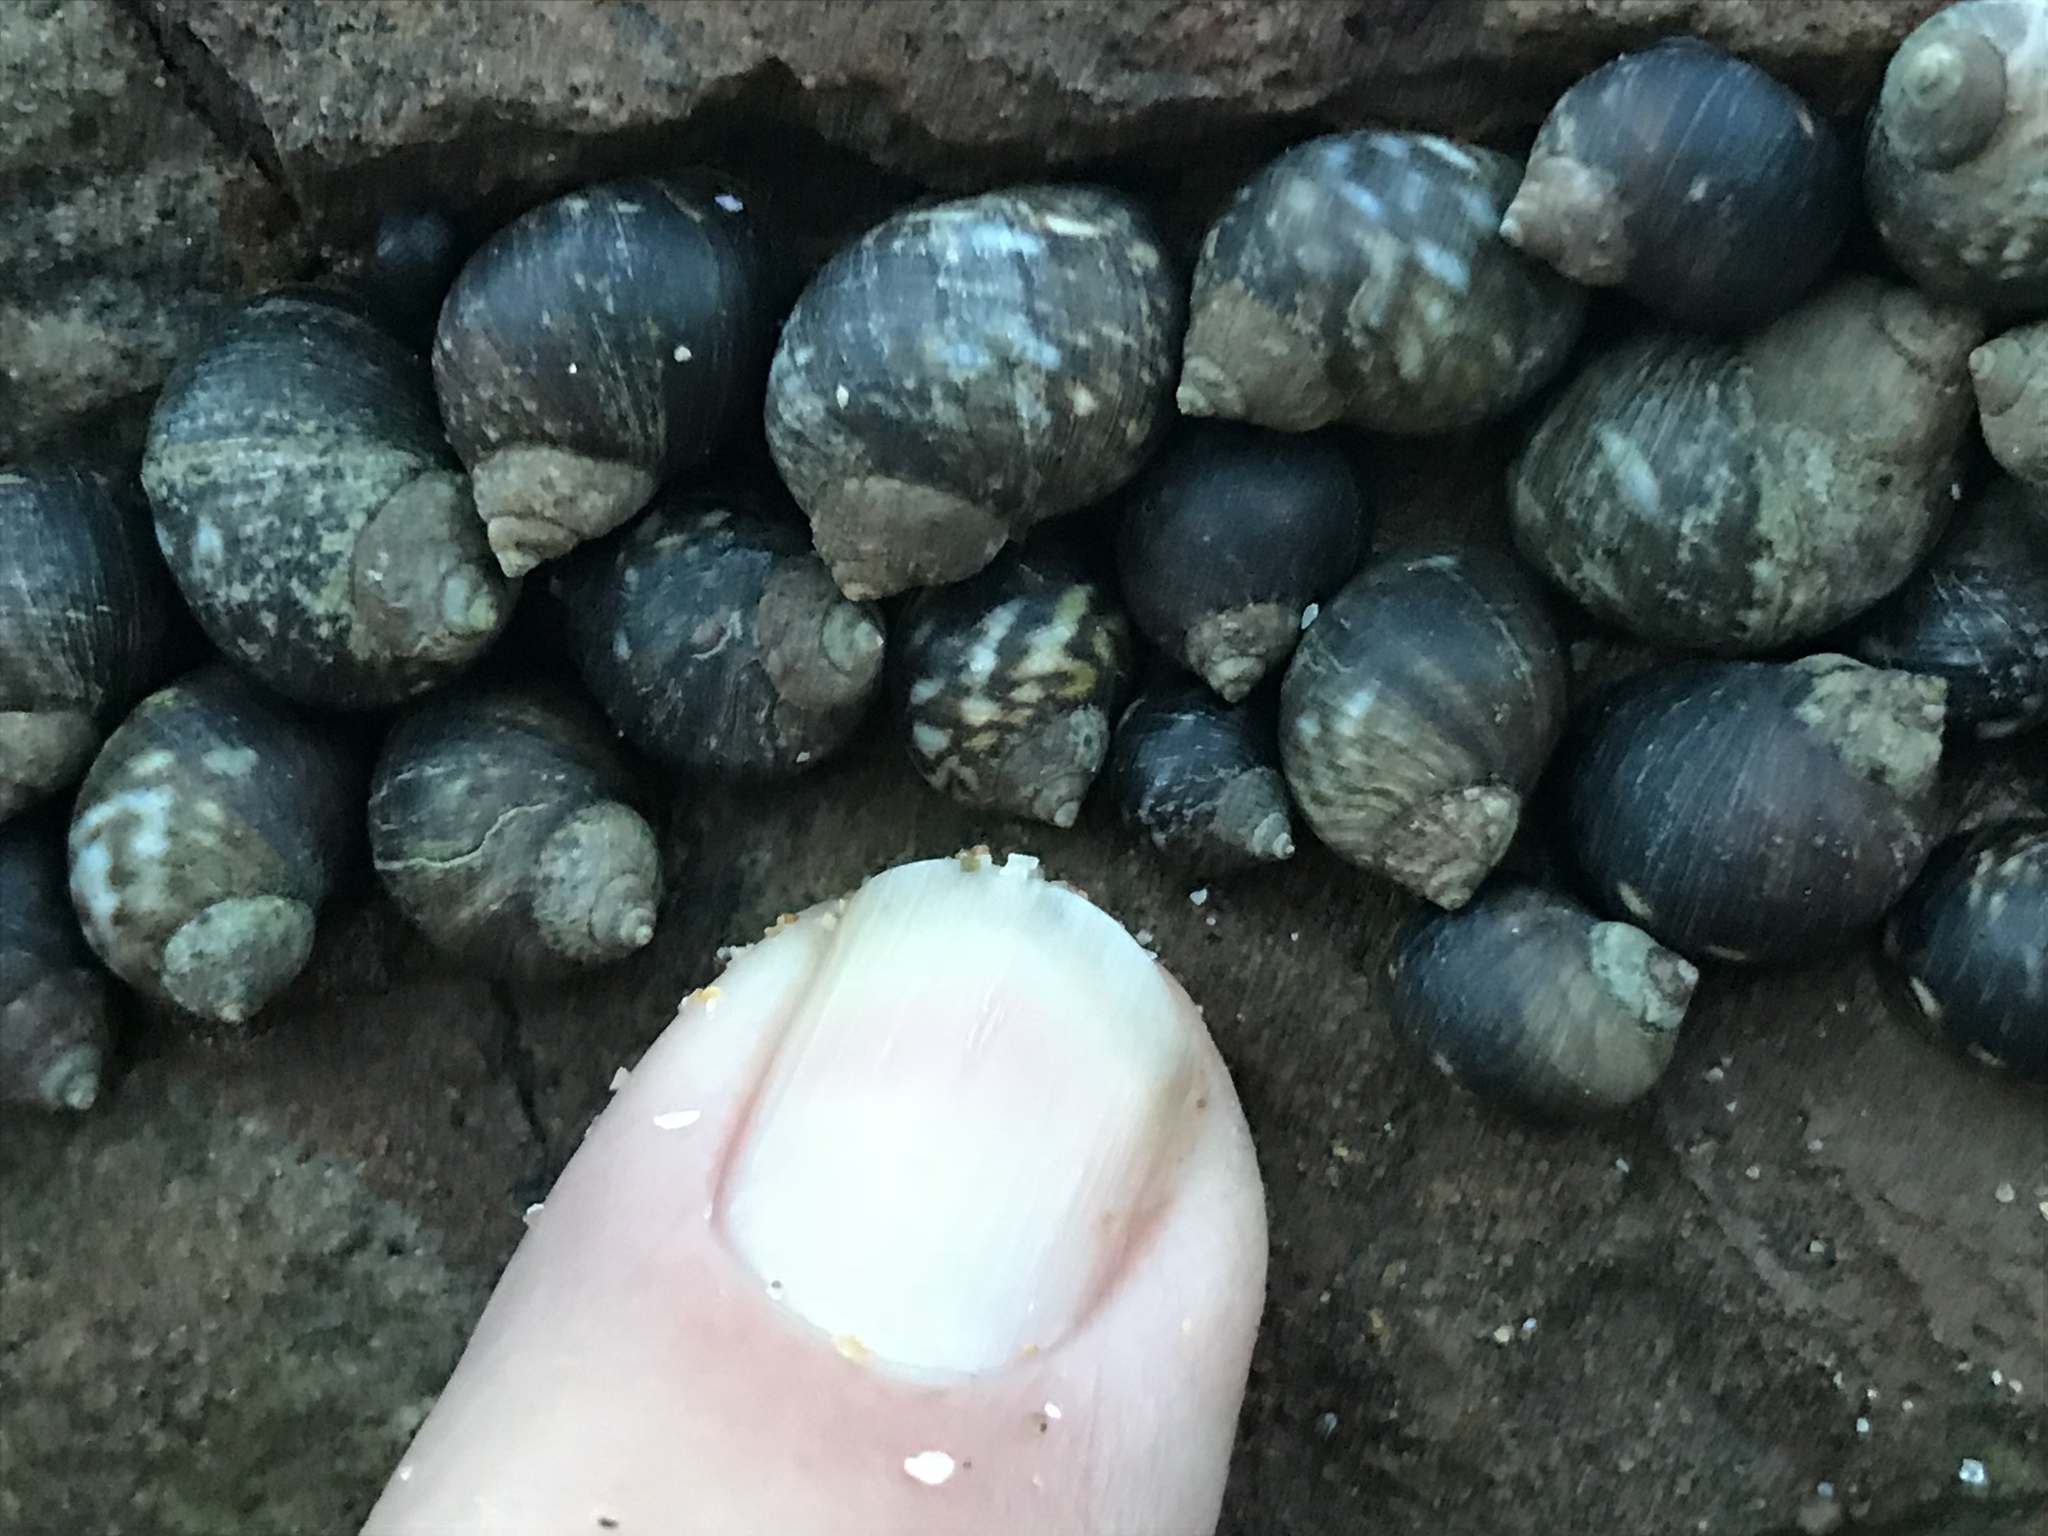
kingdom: Animalia
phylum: Mollusca
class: Gastropoda
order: Littorinimorpha
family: Littorinidae
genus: Littorina
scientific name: Littorina keenae
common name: Eroded periwinkle
